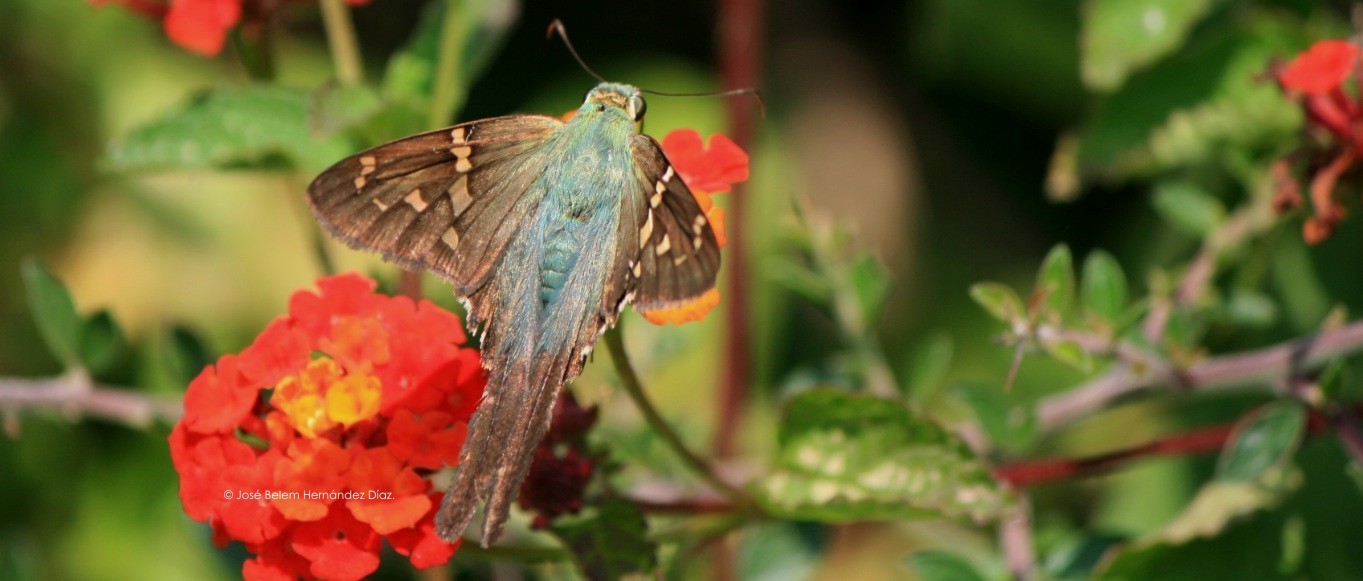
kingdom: Animalia
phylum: Arthropoda
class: Insecta
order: Lepidoptera
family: Hesperiidae
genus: Urbanus
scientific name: Urbanus proteus
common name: Long-tailed skipper
